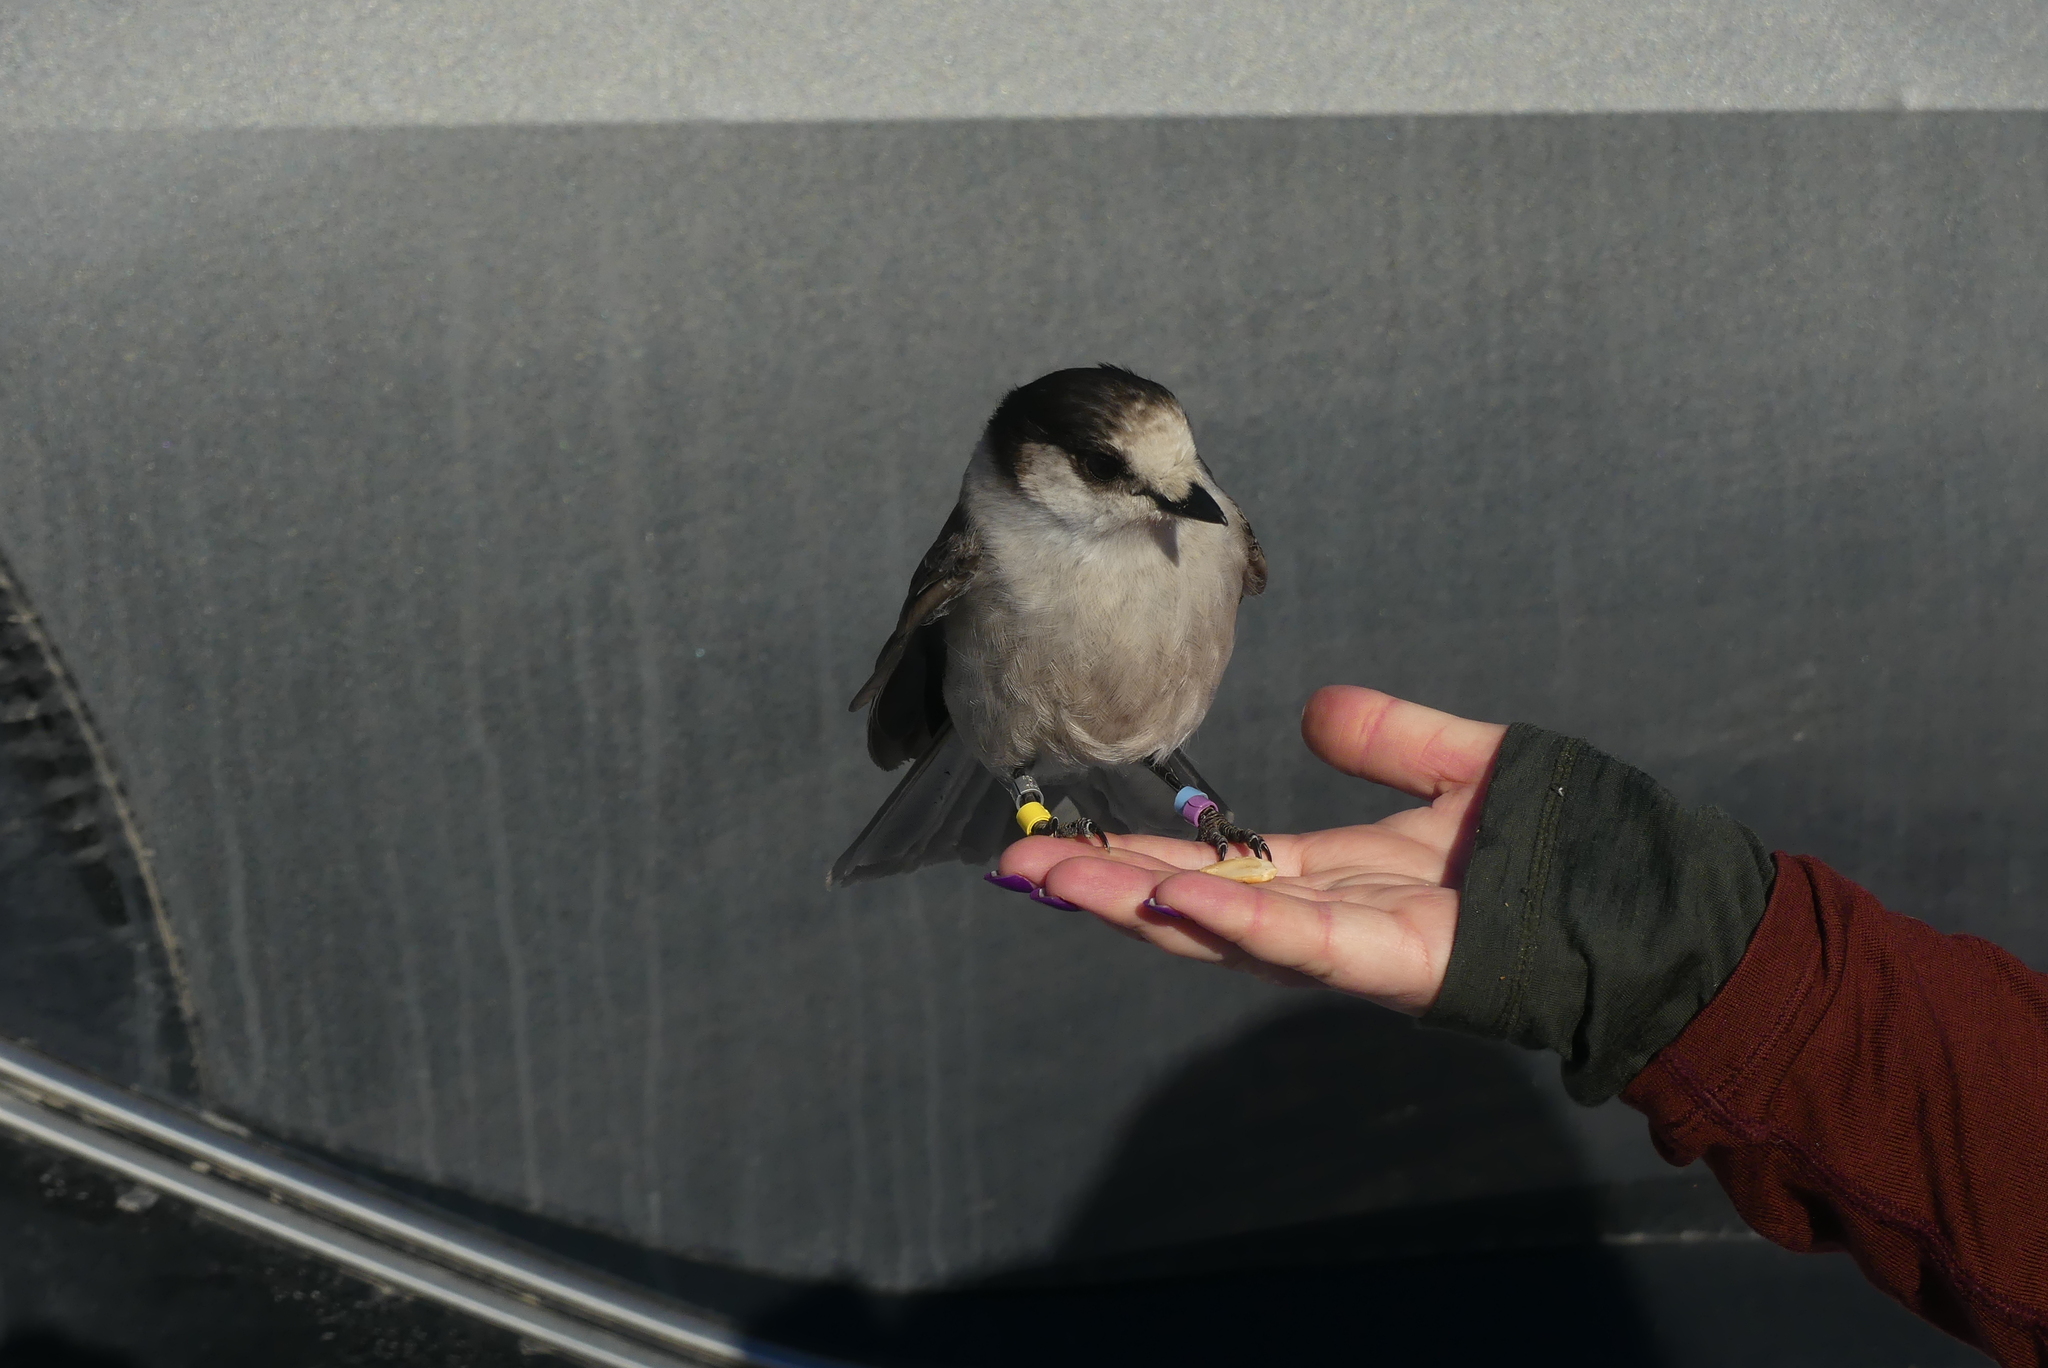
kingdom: Animalia
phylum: Chordata
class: Aves
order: Passeriformes
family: Corvidae
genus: Perisoreus
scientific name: Perisoreus canadensis
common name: Gray jay
